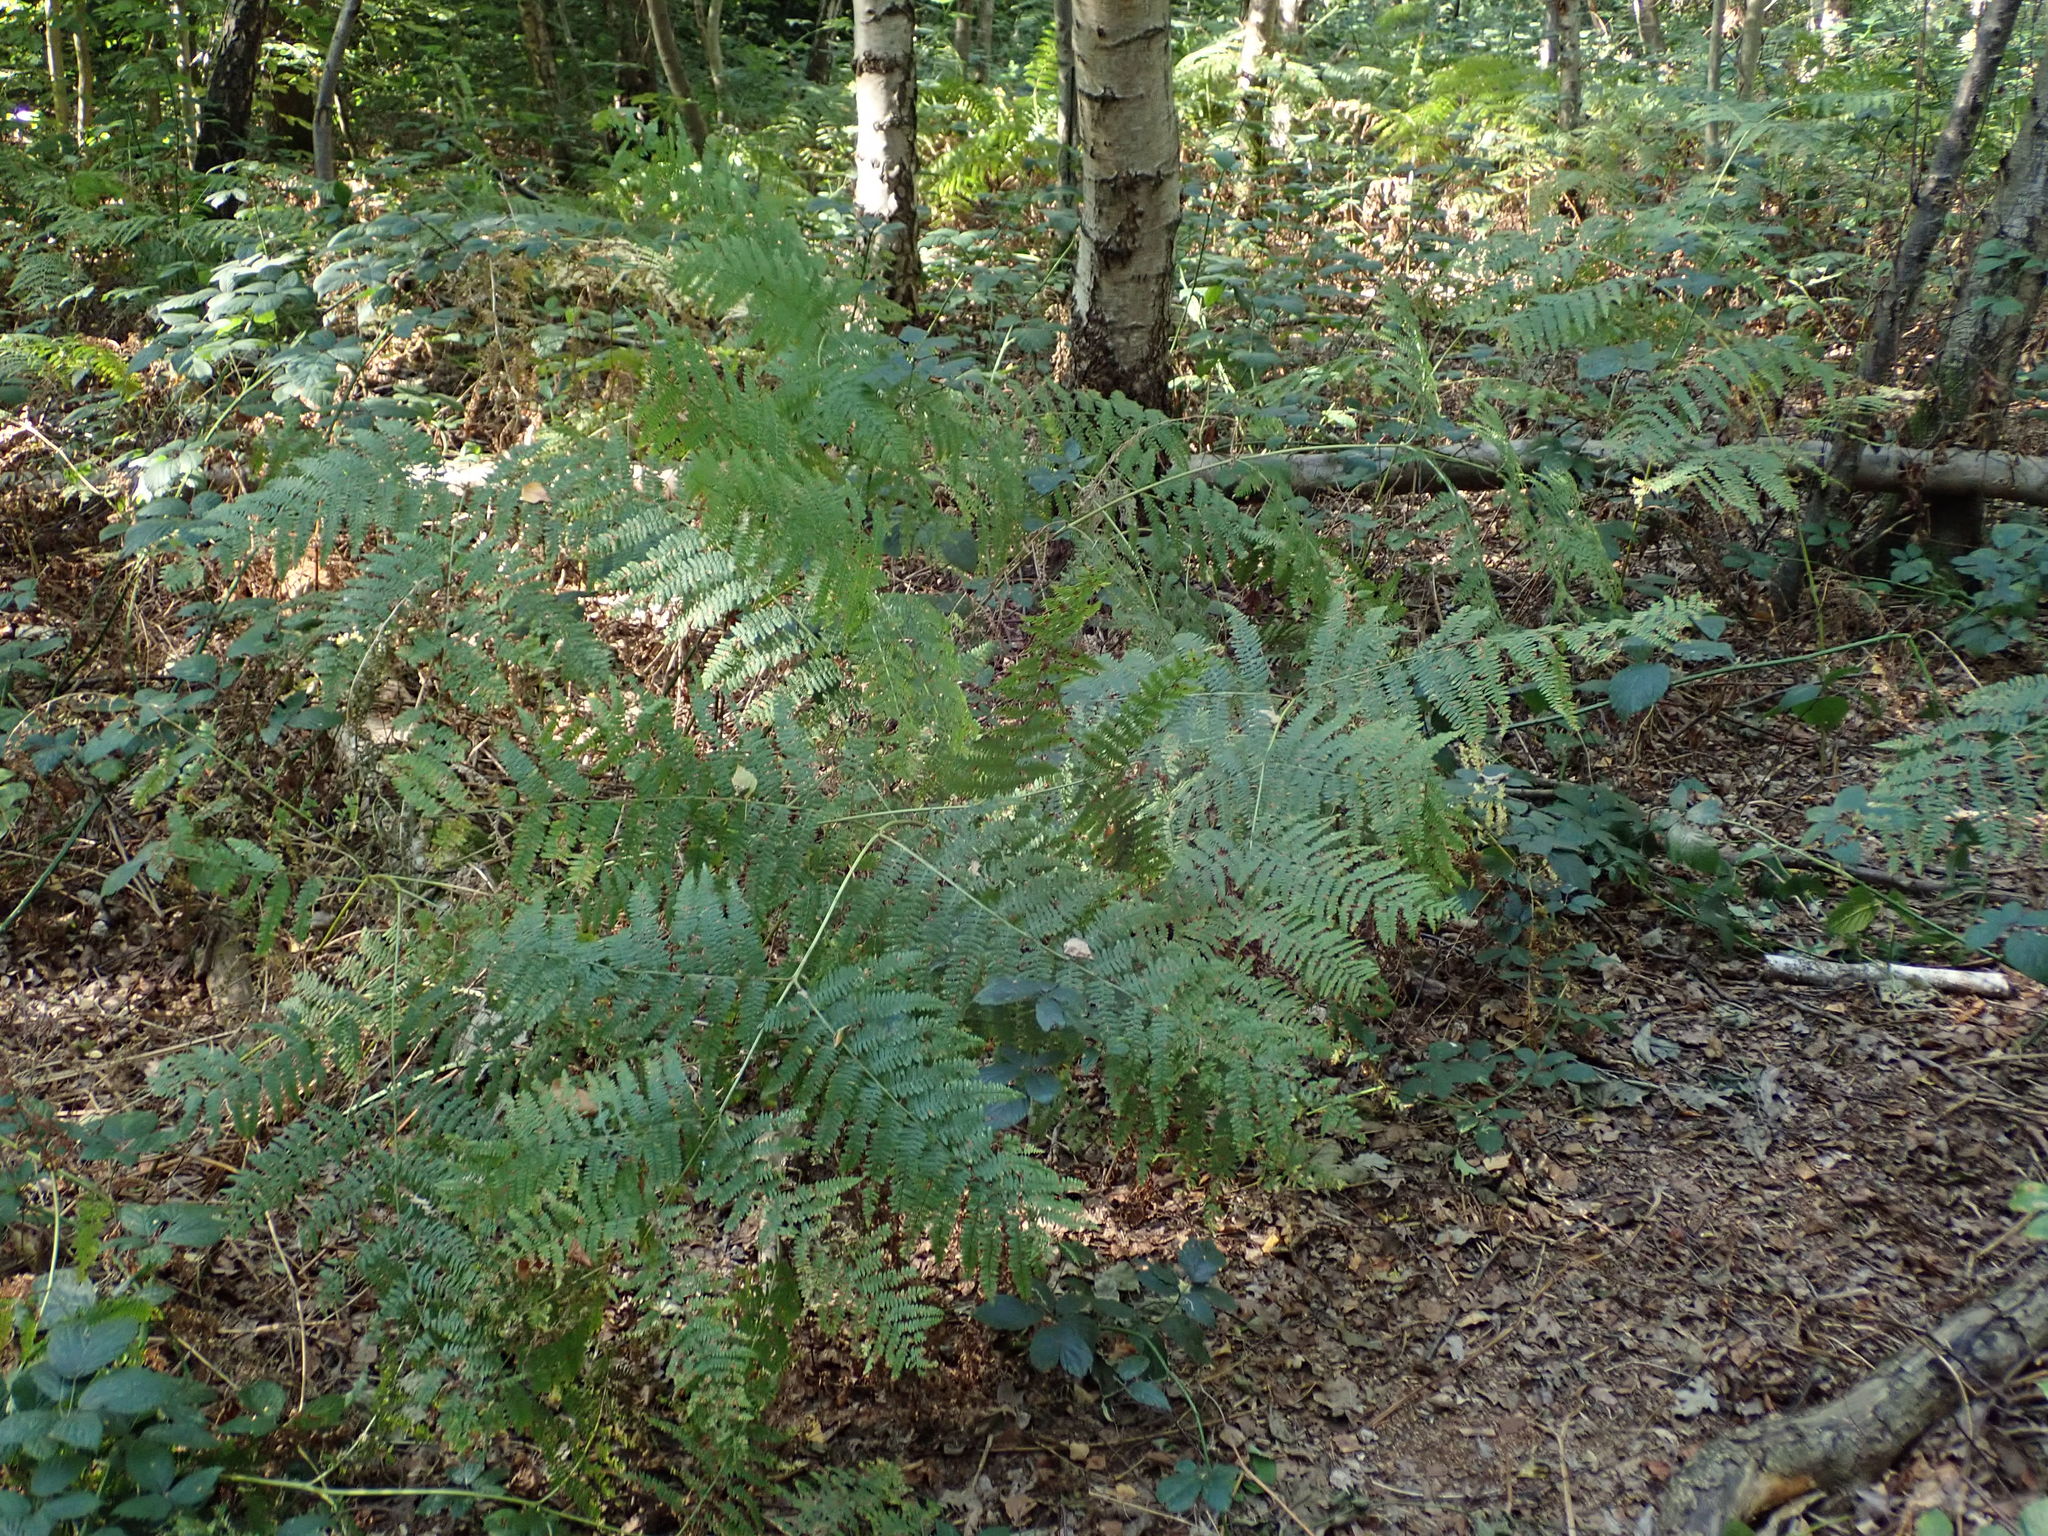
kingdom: Plantae
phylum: Tracheophyta
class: Polypodiopsida
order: Polypodiales
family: Dennstaedtiaceae
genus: Pteridium
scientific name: Pteridium aquilinum
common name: Bracken
